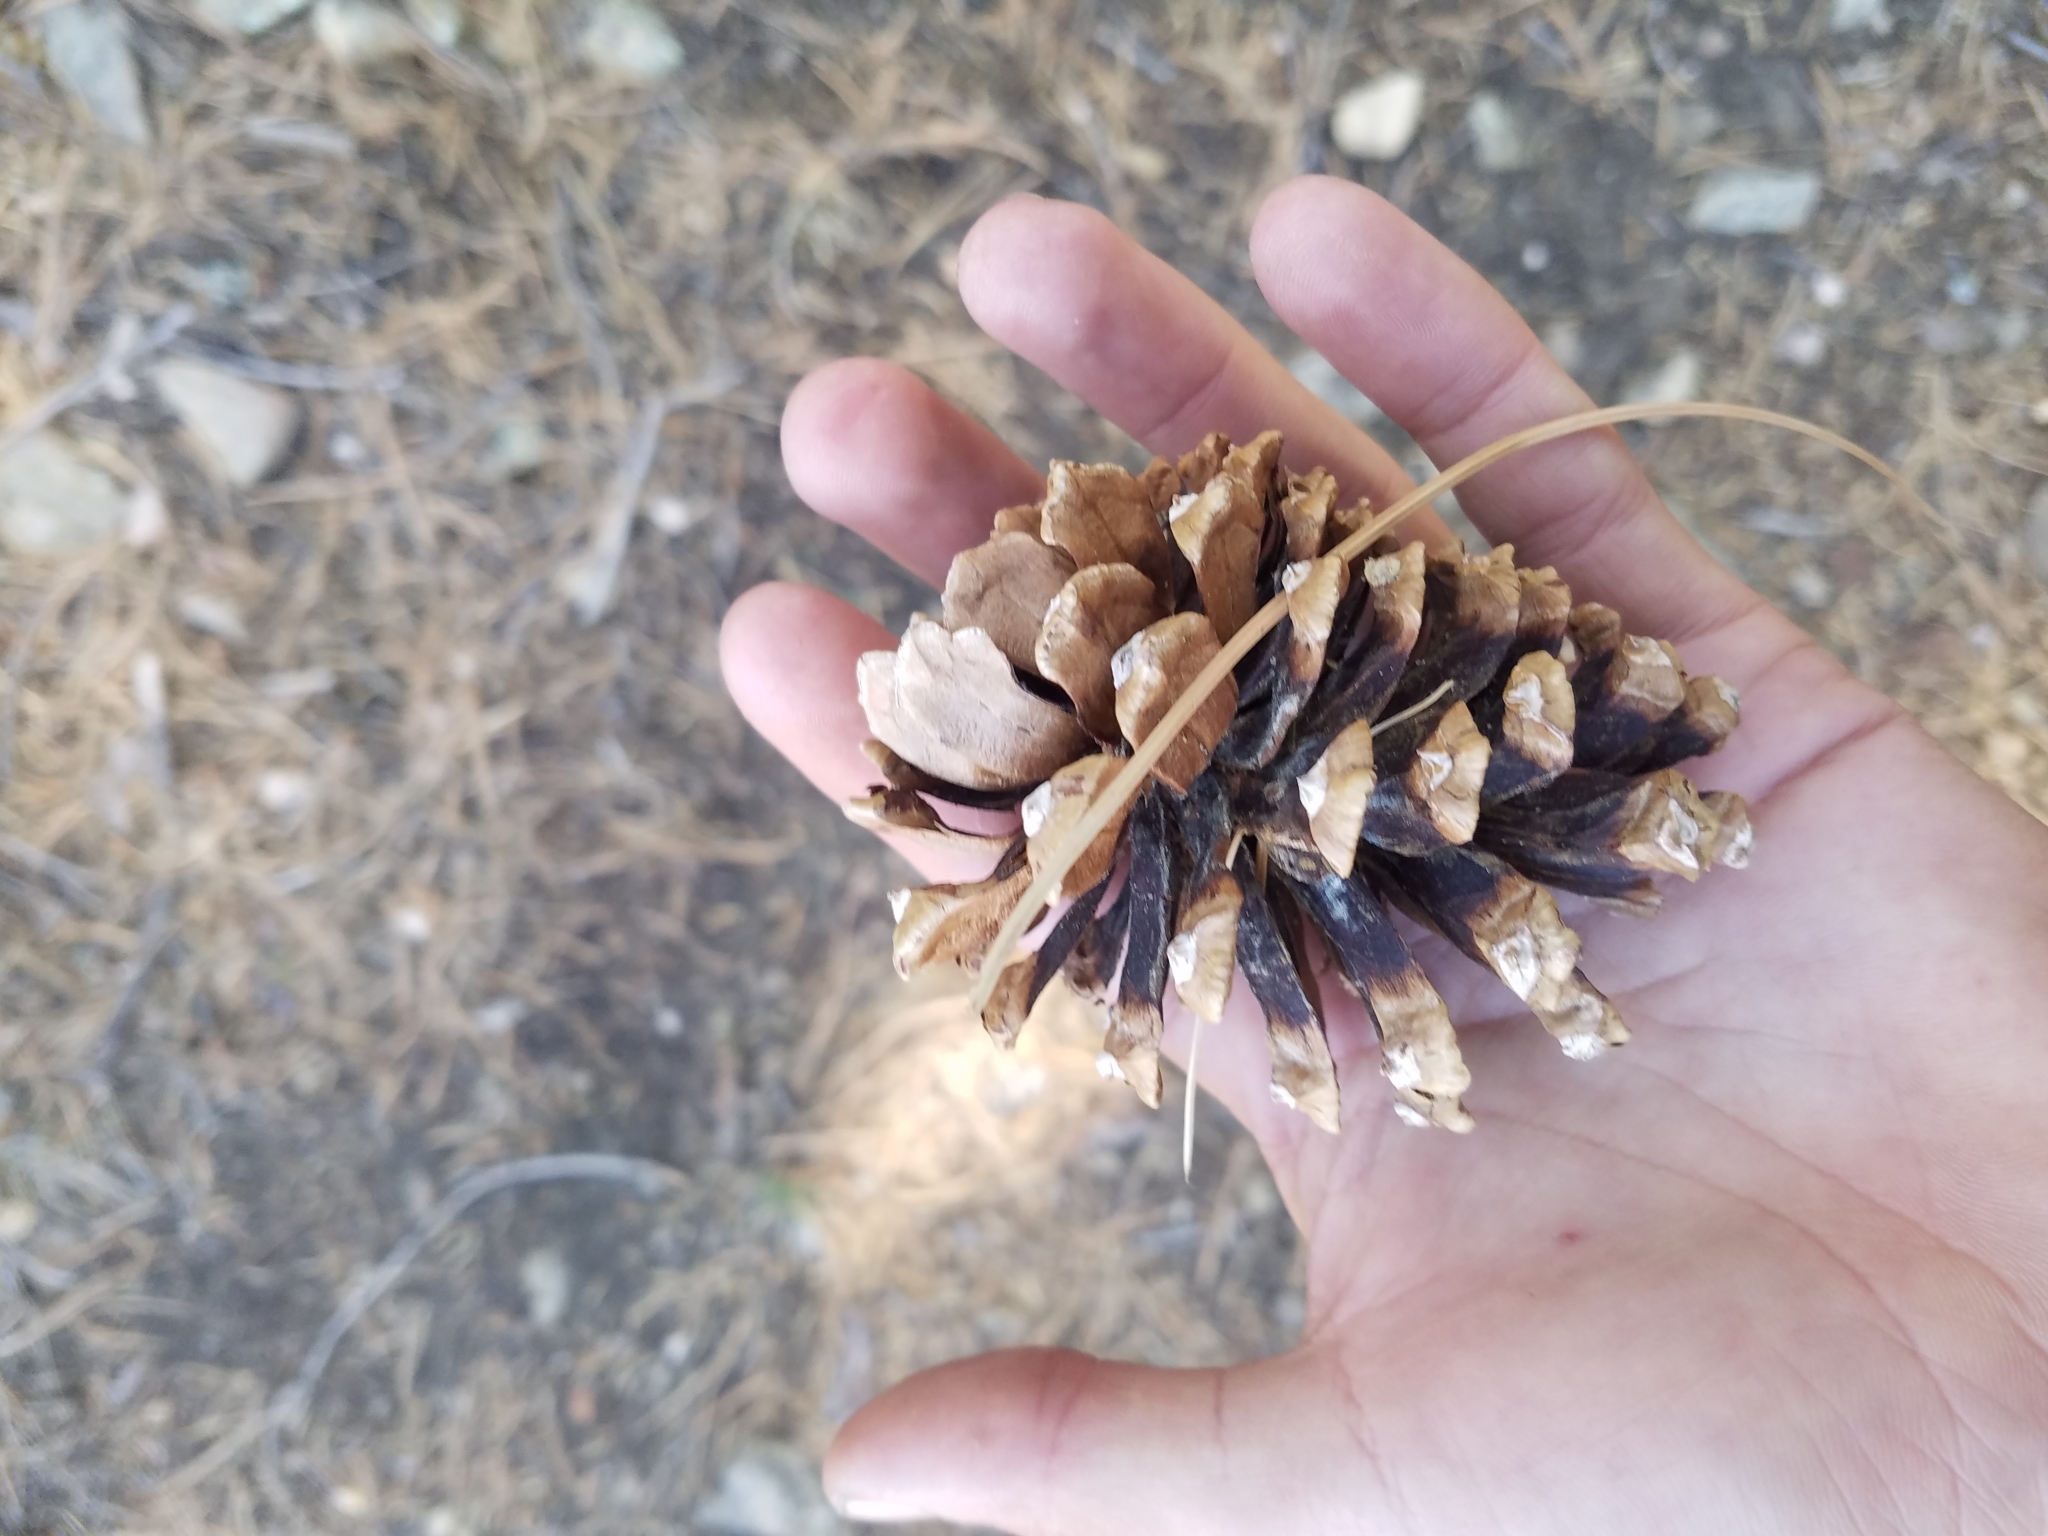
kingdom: Plantae
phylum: Tracheophyta
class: Pinopsida
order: Pinales
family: Pinaceae
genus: Pinus
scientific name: Pinus leiophylla
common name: Chihuahua pine
